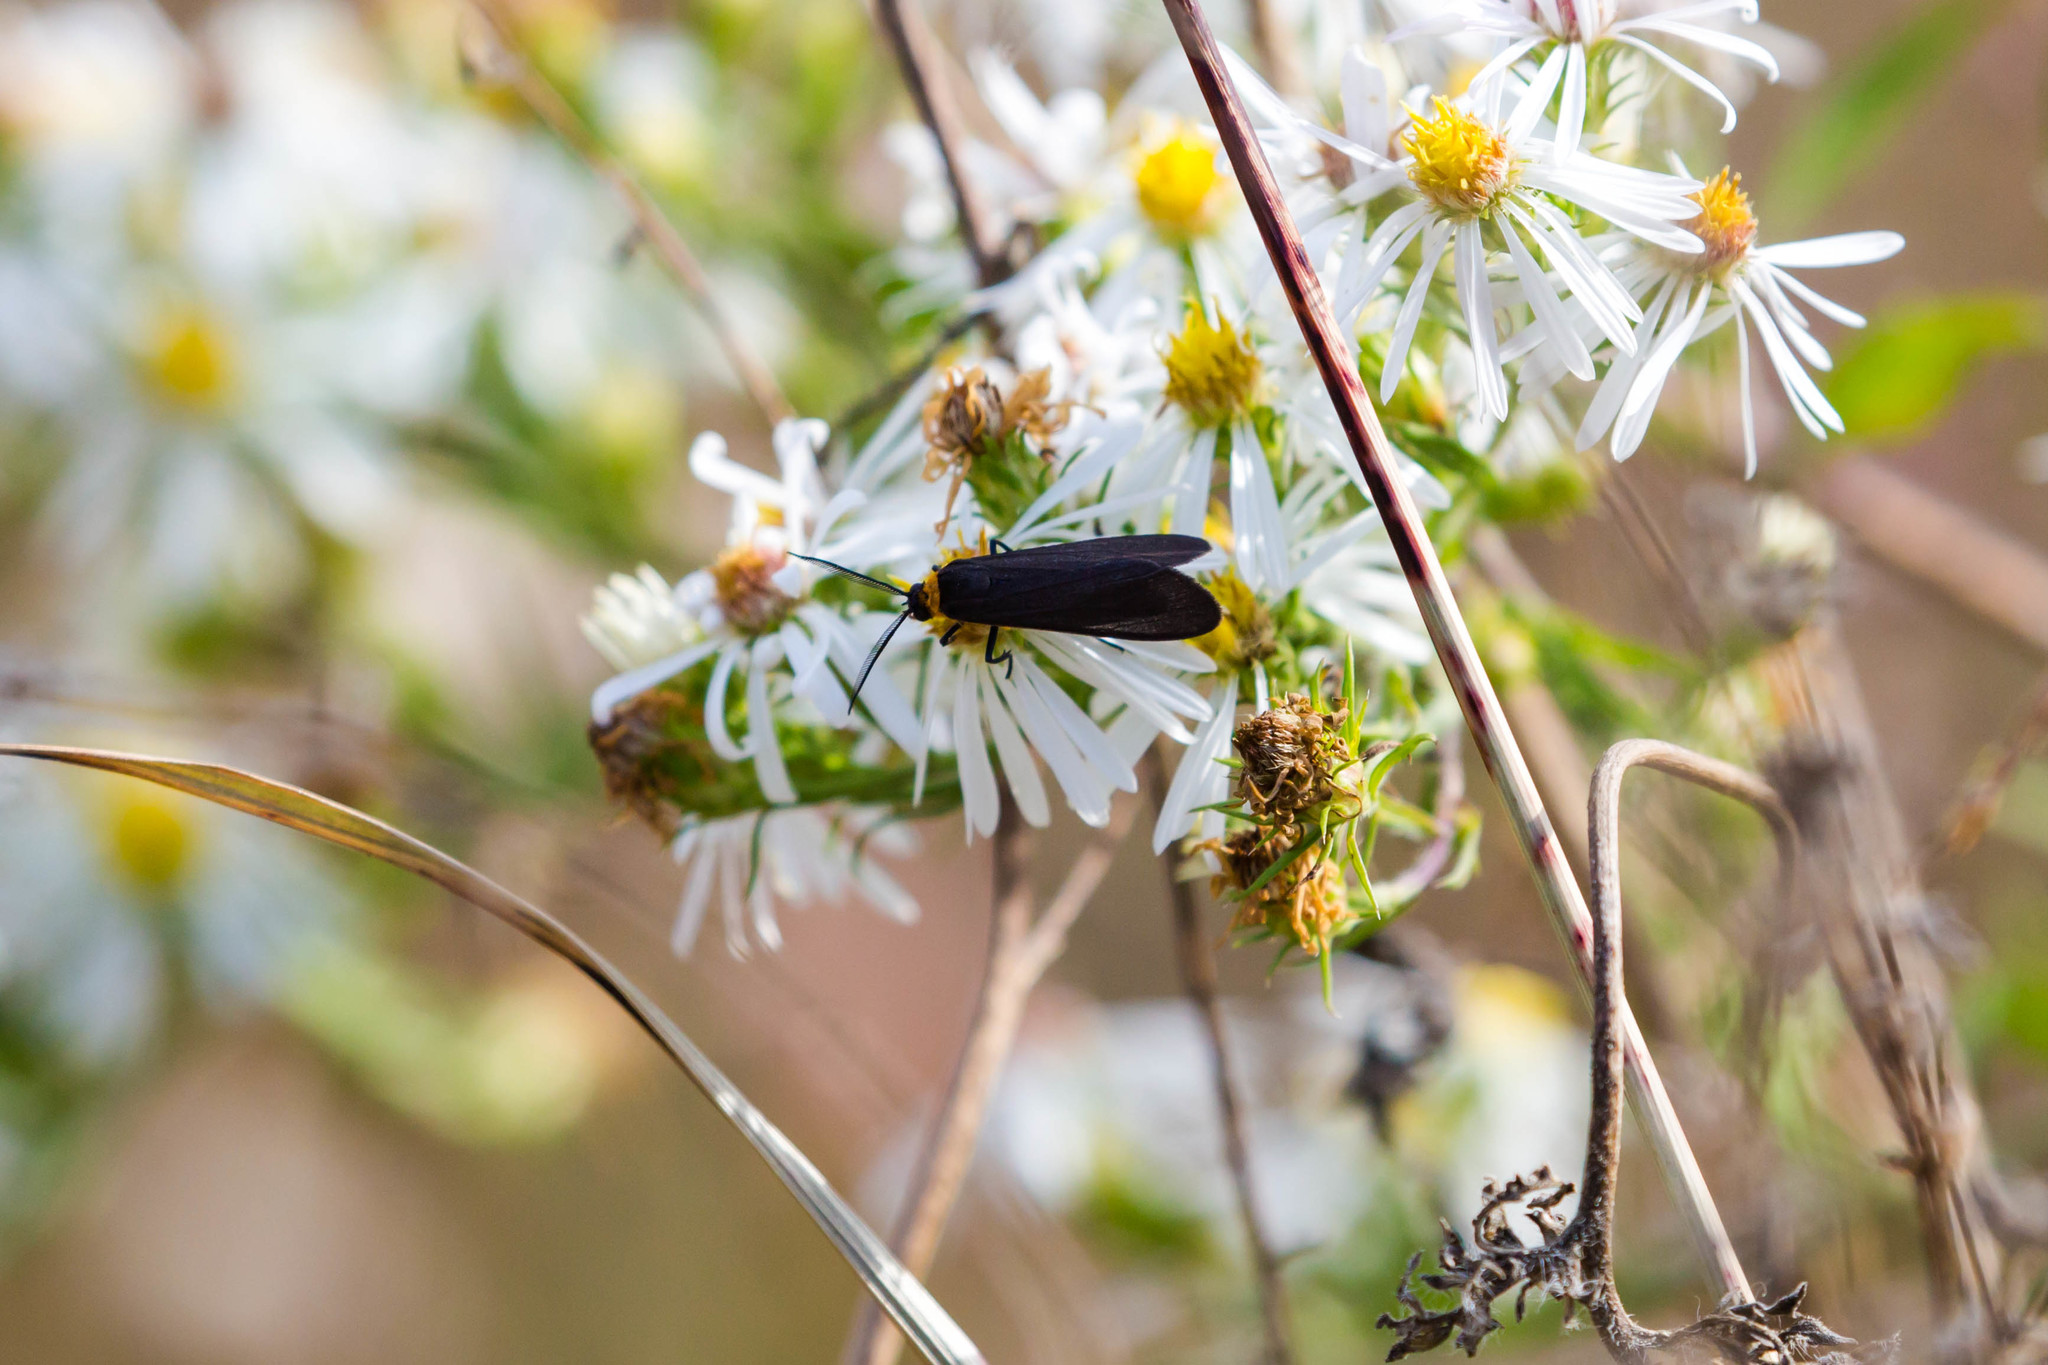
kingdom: Animalia
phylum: Arthropoda
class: Insecta
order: Lepidoptera
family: Erebidae
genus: Cisseps
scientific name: Cisseps fulvicollis
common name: Yellow-collared scape moth
